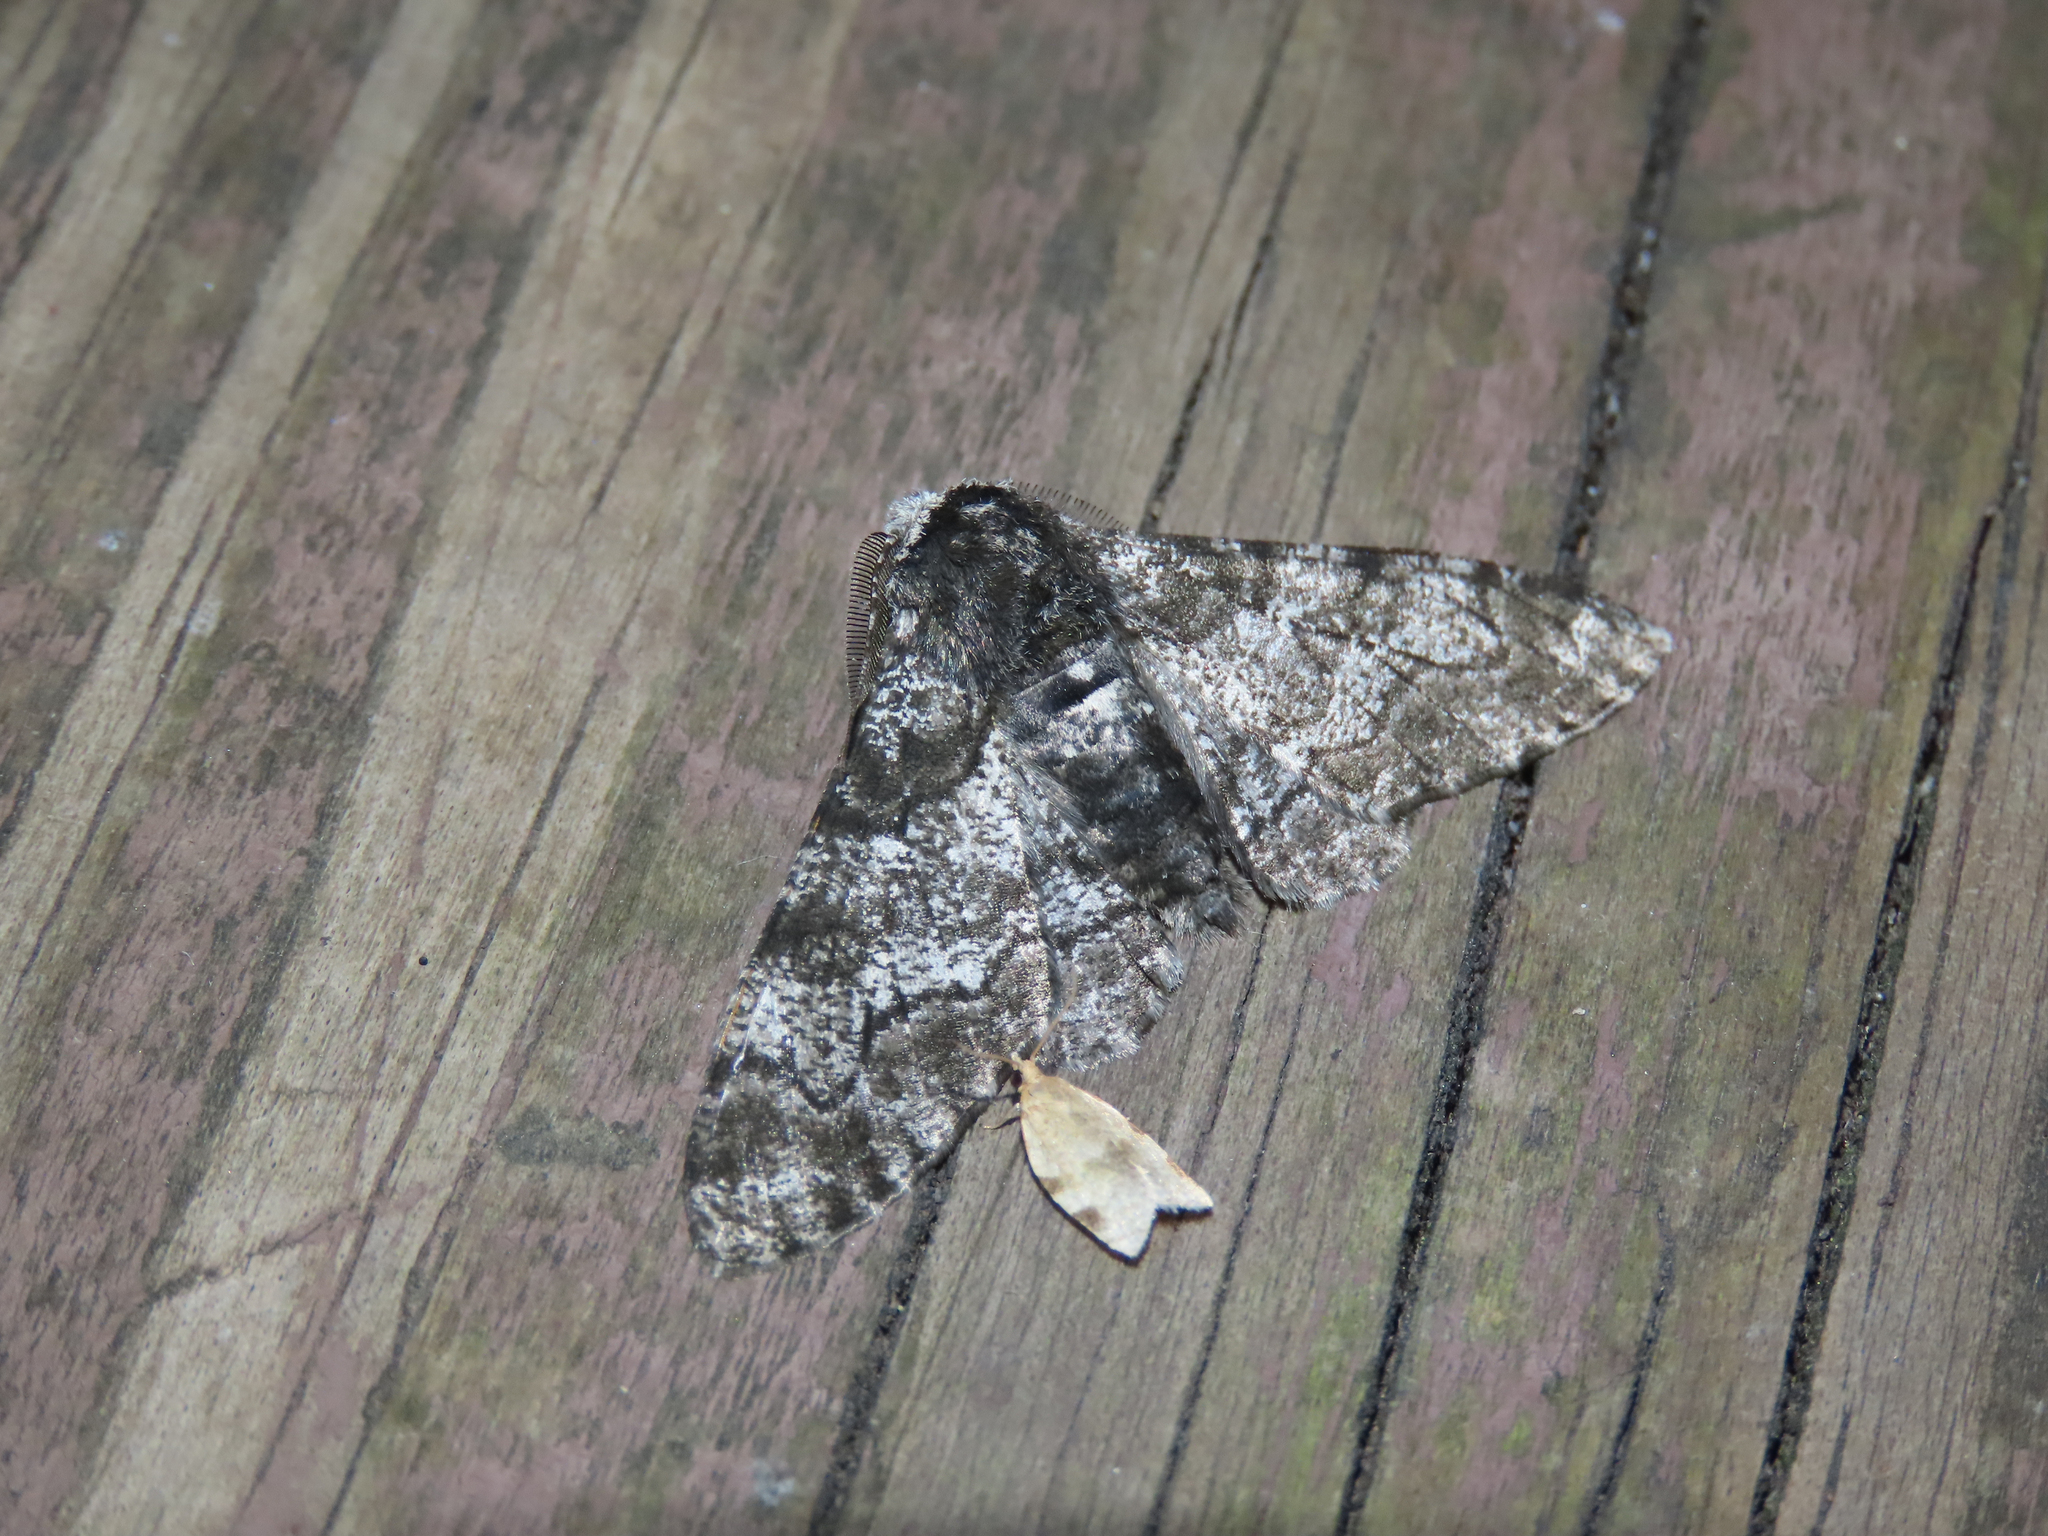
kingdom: Animalia
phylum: Arthropoda
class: Insecta
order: Lepidoptera
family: Geometridae
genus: Biston
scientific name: Biston betularia
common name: Peppered moth
